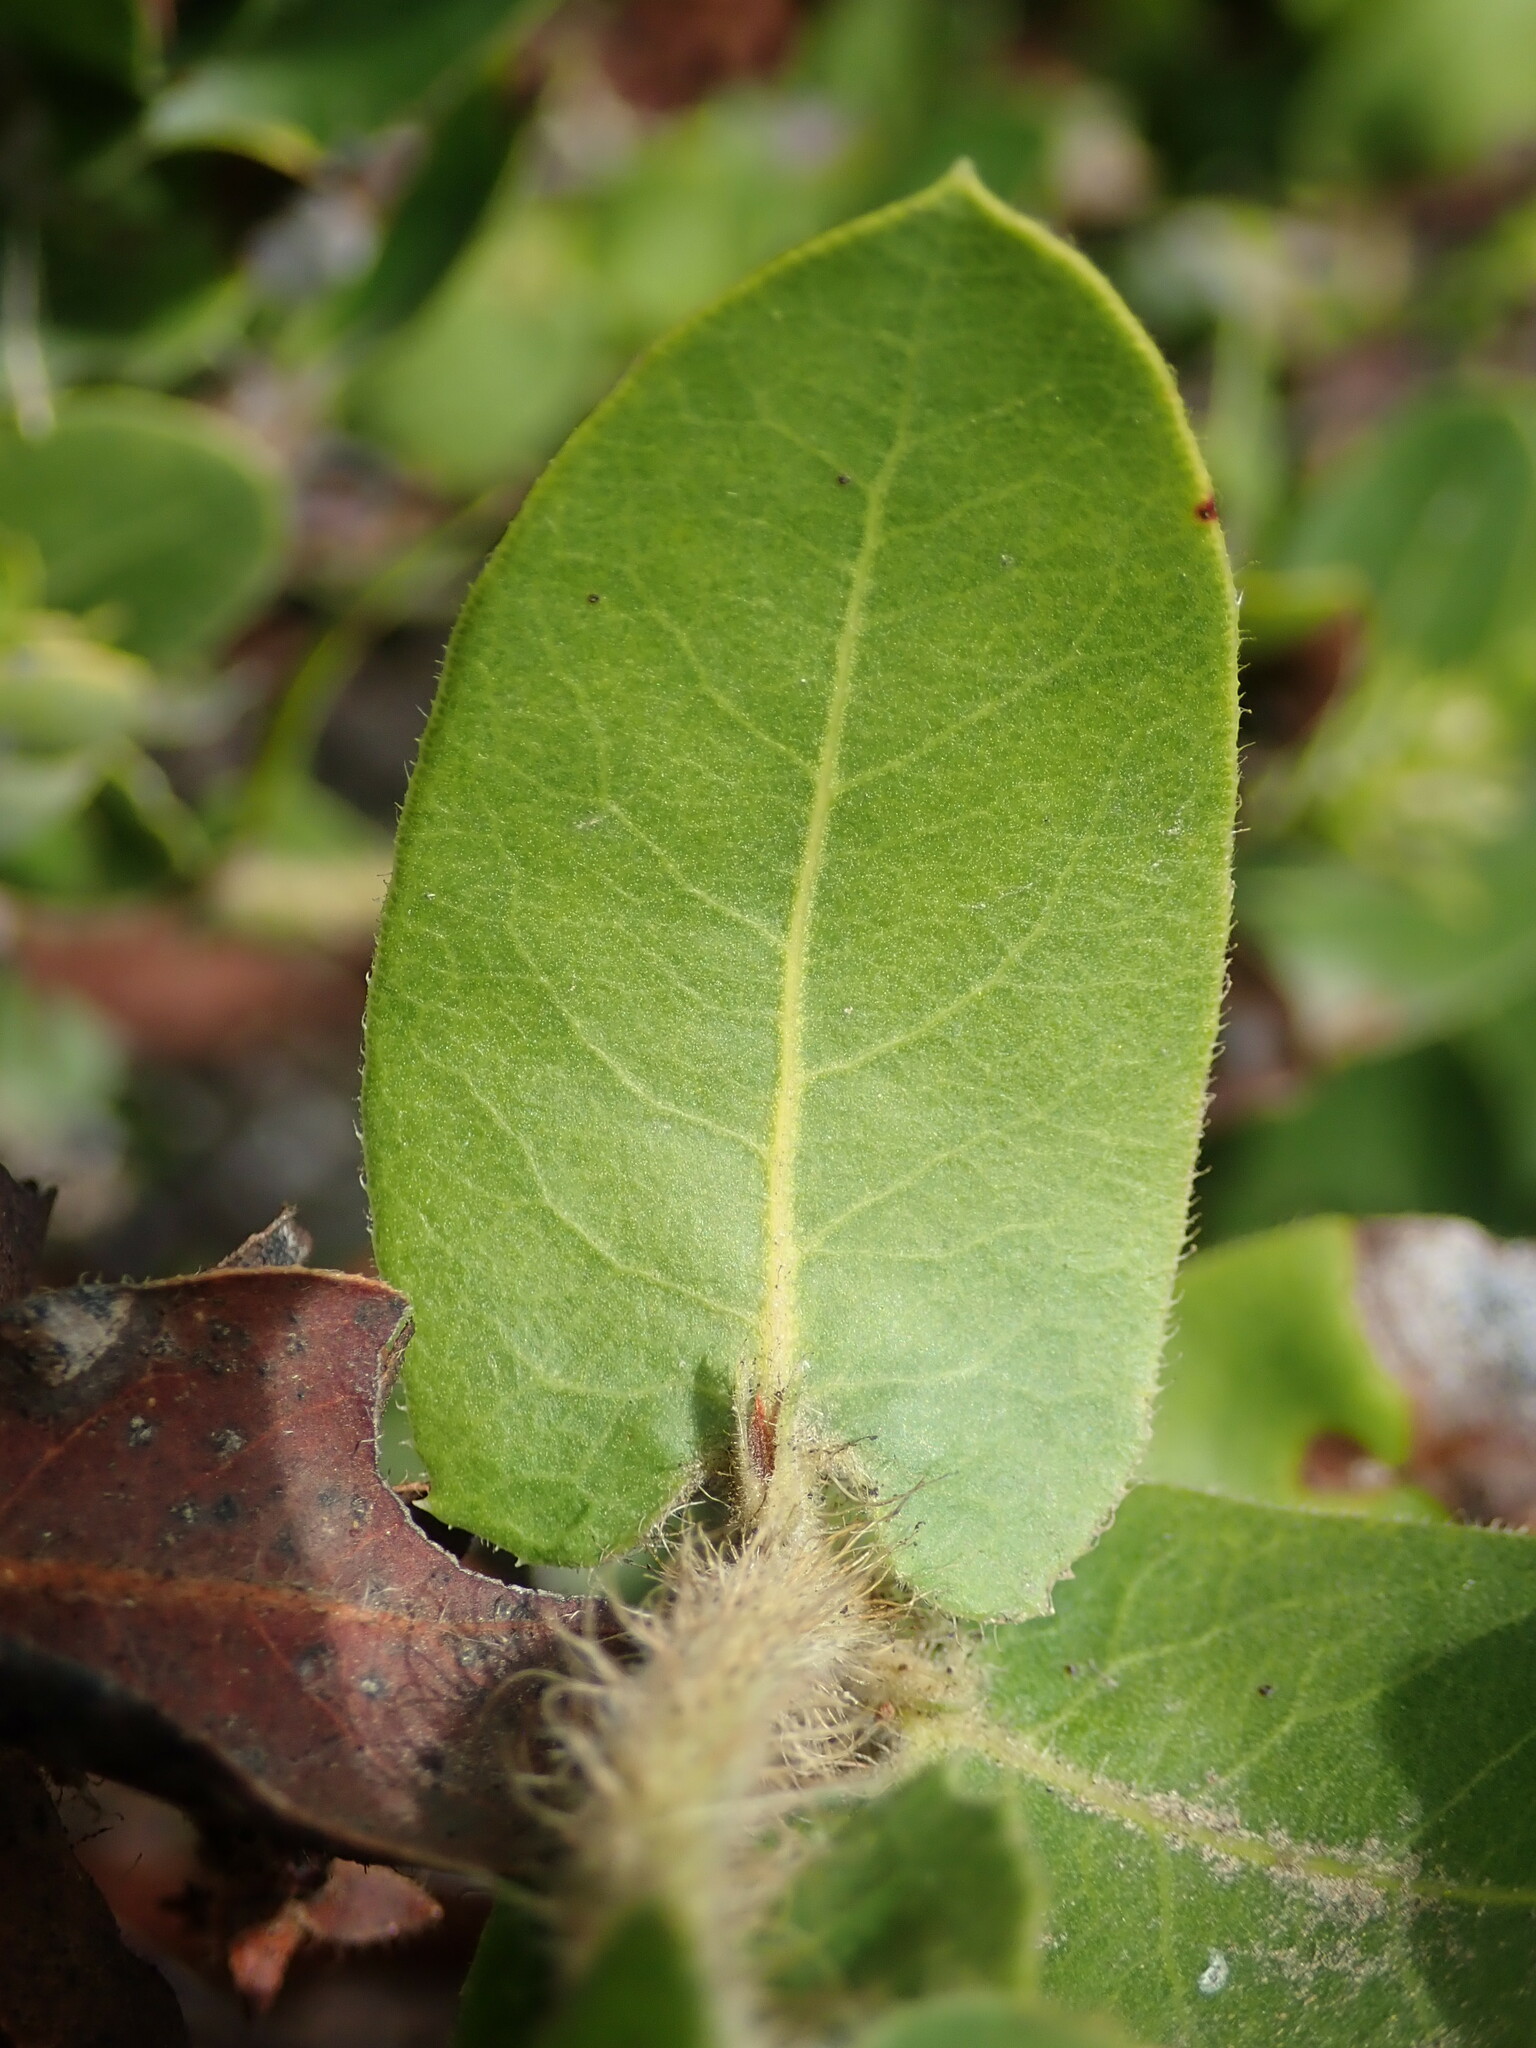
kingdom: Plantae
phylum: Tracheophyta
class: Magnoliopsida
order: Ericales
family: Ericaceae
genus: Arctostaphylos
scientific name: Arctostaphylos montaraensis
